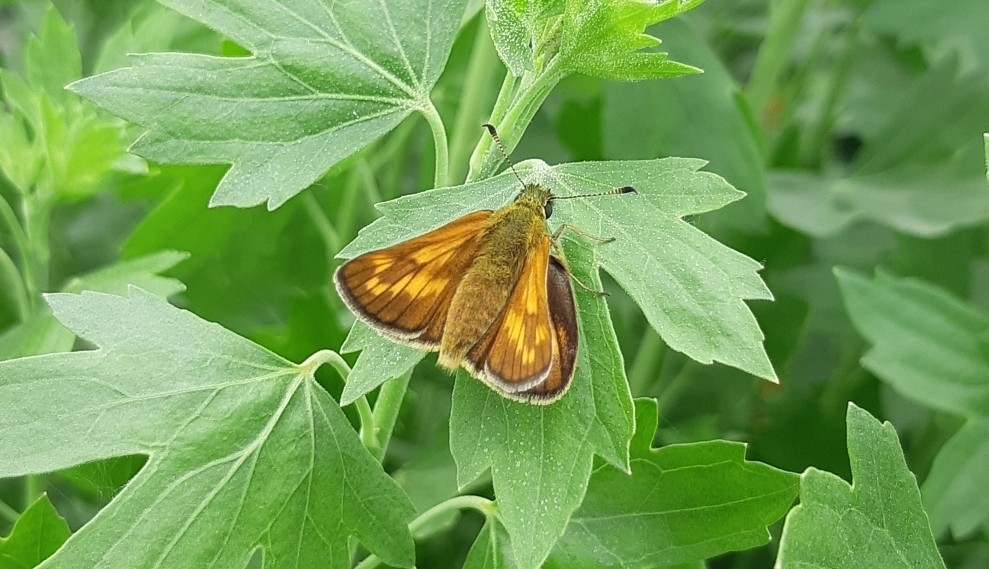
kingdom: Animalia
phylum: Arthropoda
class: Insecta
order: Lepidoptera
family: Hesperiidae
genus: Ochlodes
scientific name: Ochlodes venata
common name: Large skipper
